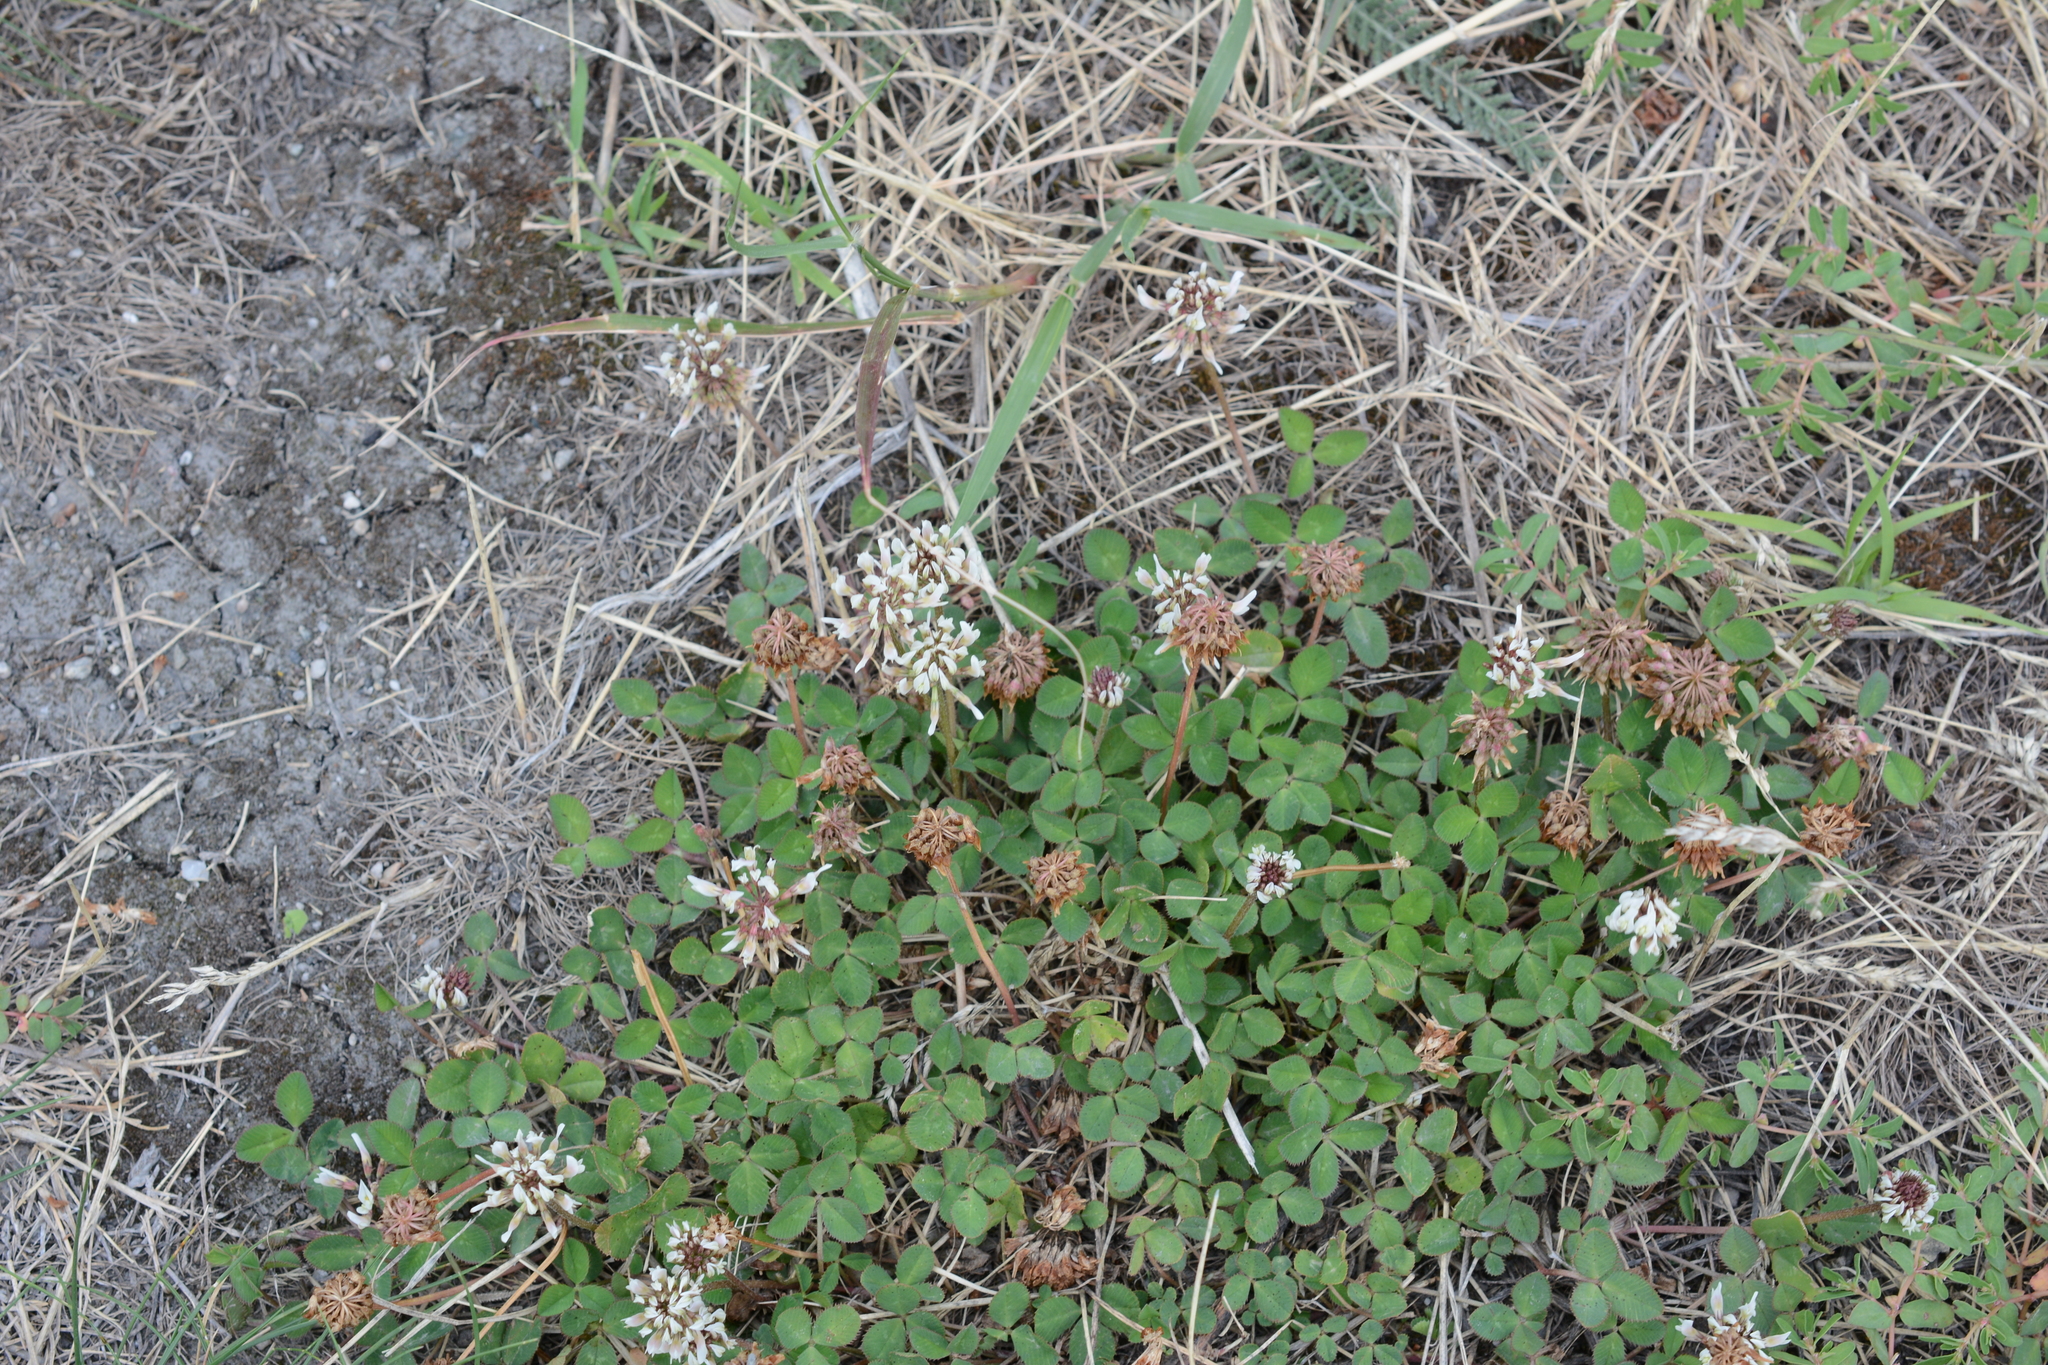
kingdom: Plantae
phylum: Tracheophyta
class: Magnoliopsida
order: Fabales
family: Fabaceae
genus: Trifolium
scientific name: Trifolium repens
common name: White clover
